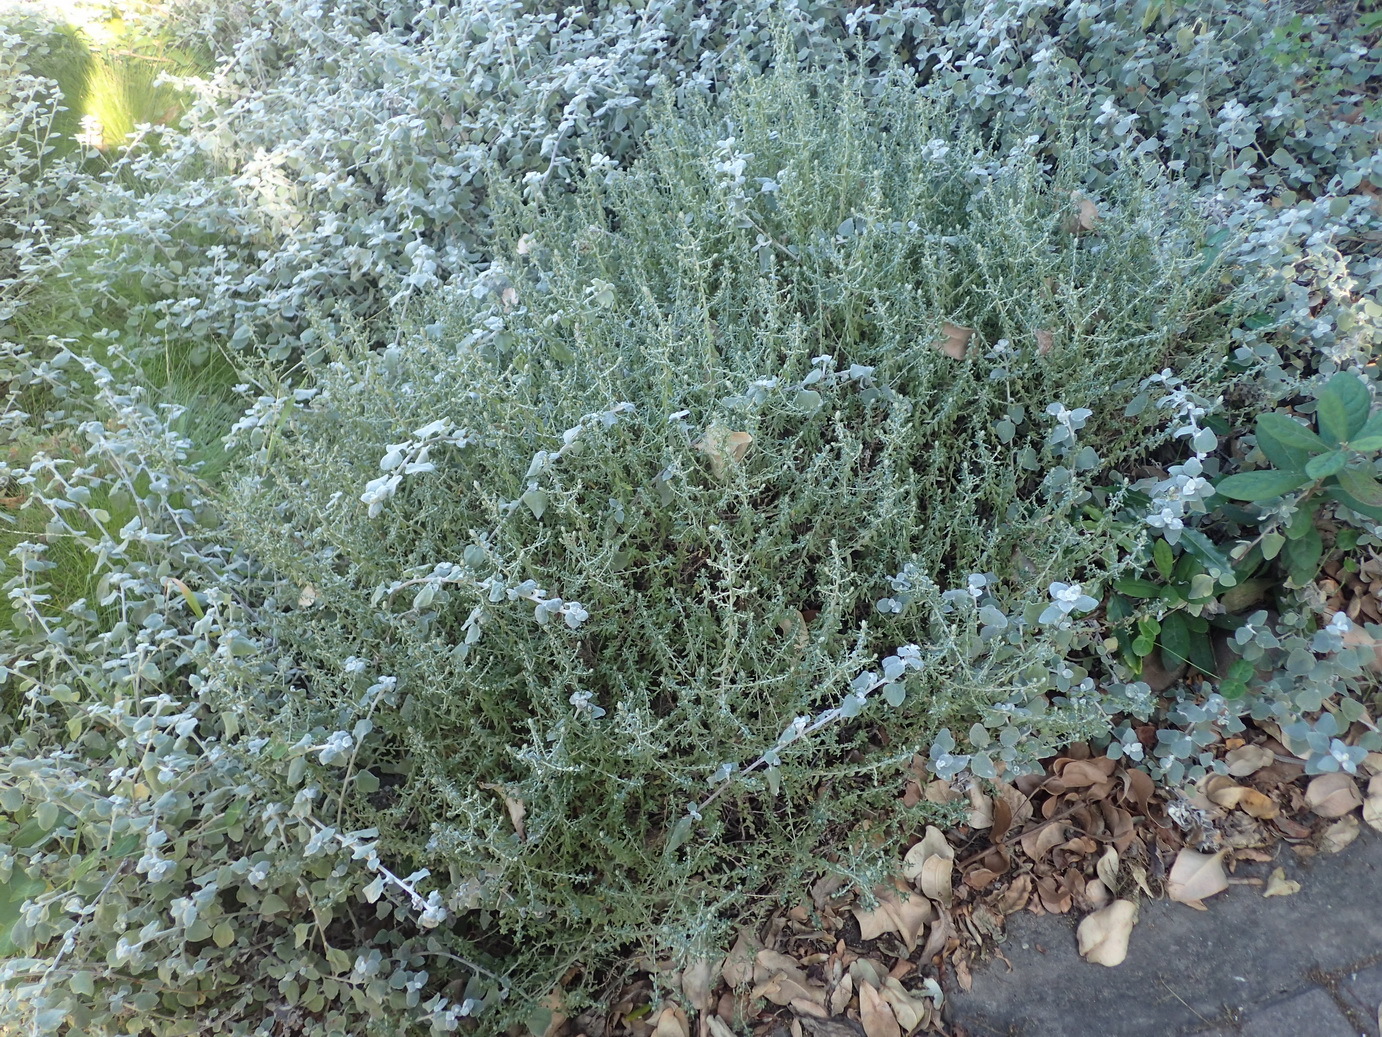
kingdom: Plantae
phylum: Tracheophyta
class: Magnoliopsida
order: Asterales
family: Asteraceae
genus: Helichrysum
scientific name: Helichrysum cymosum
